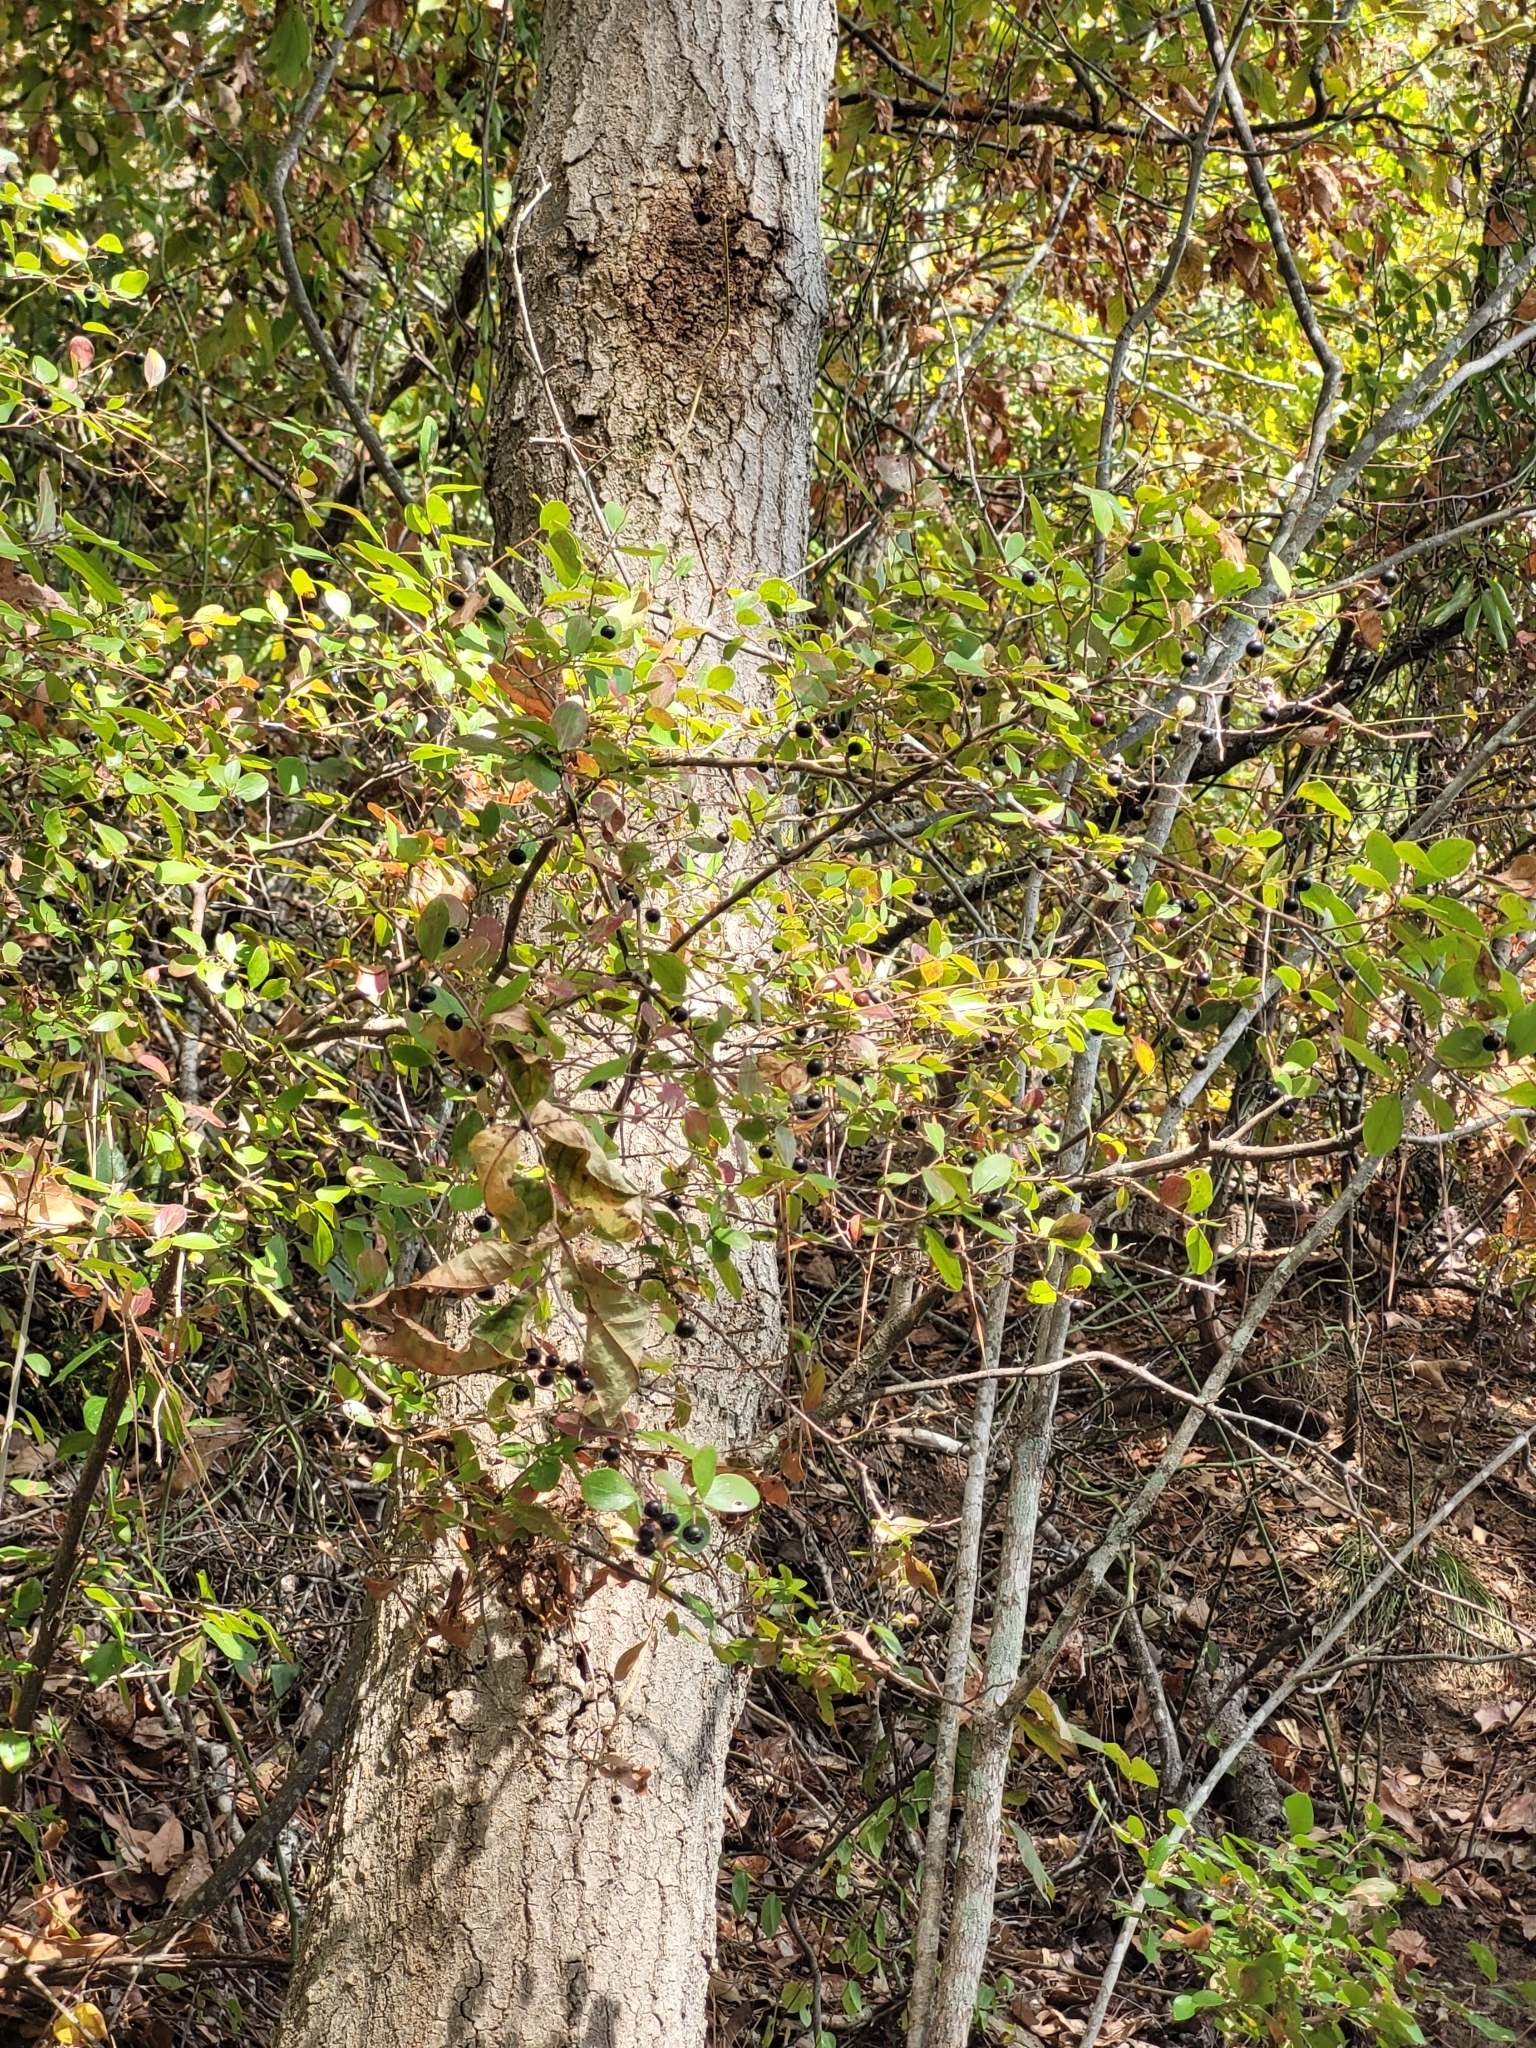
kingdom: Plantae
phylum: Tracheophyta
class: Magnoliopsida
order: Ericales
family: Ericaceae
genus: Vaccinium
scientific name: Vaccinium arboreum
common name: Farkleberry
